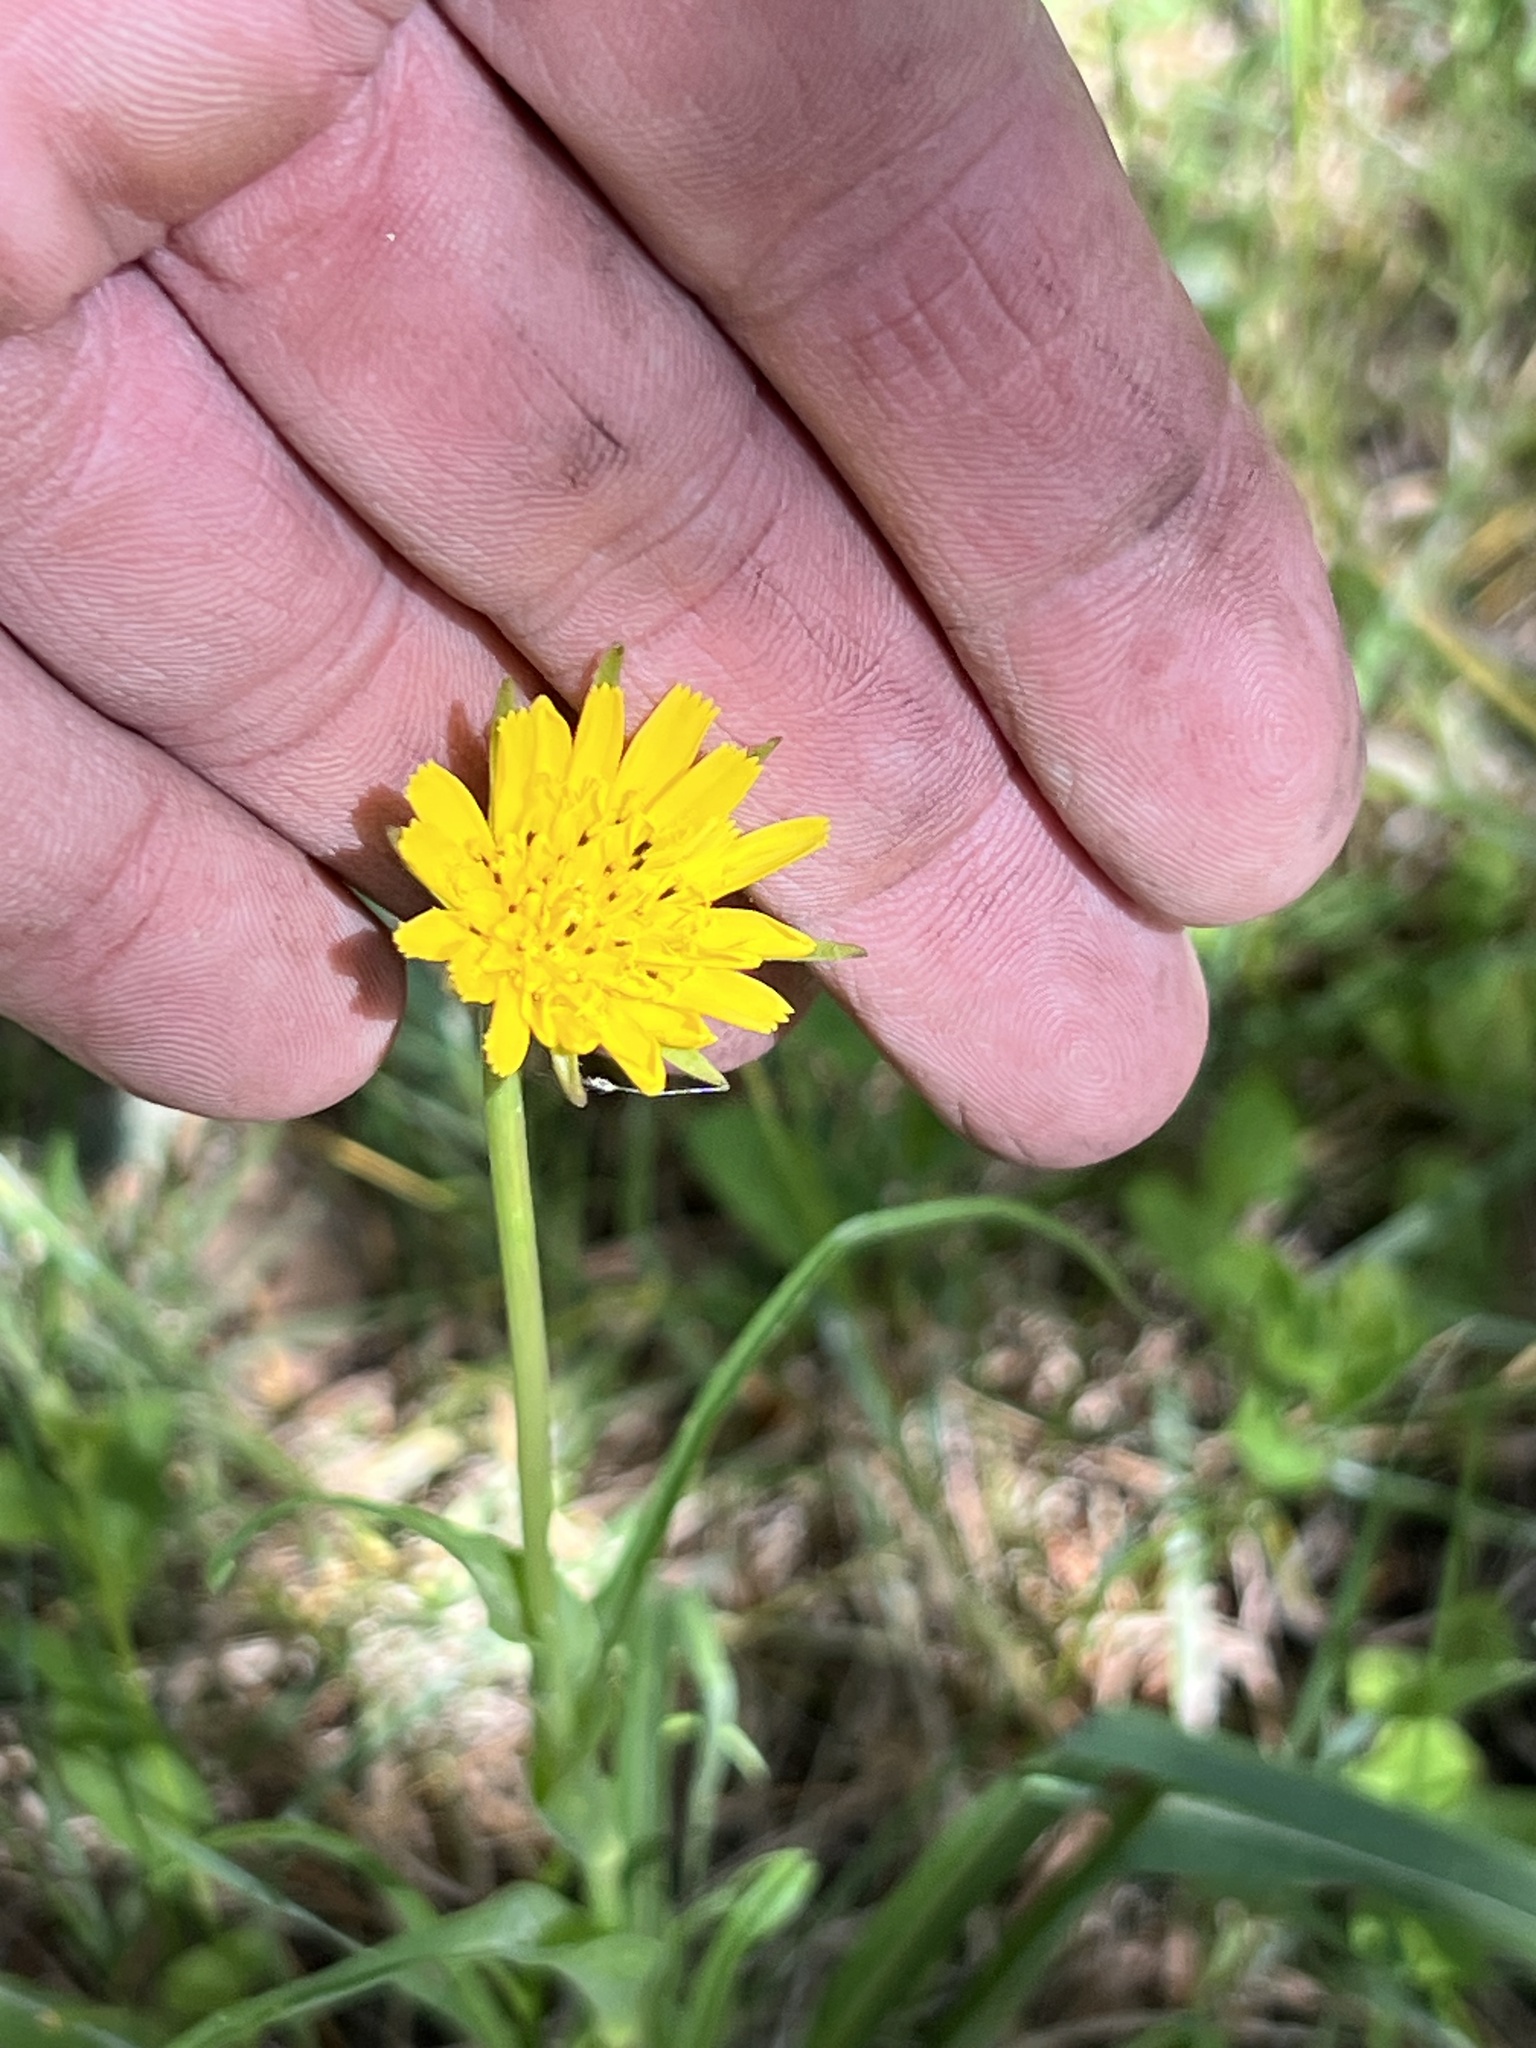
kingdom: Plantae
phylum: Tracheophyta
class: Magnoliopsida
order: Asterales
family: Asteraceae
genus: Tragopogon
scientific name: Tragopogon pratensis
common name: Goat's-beard
